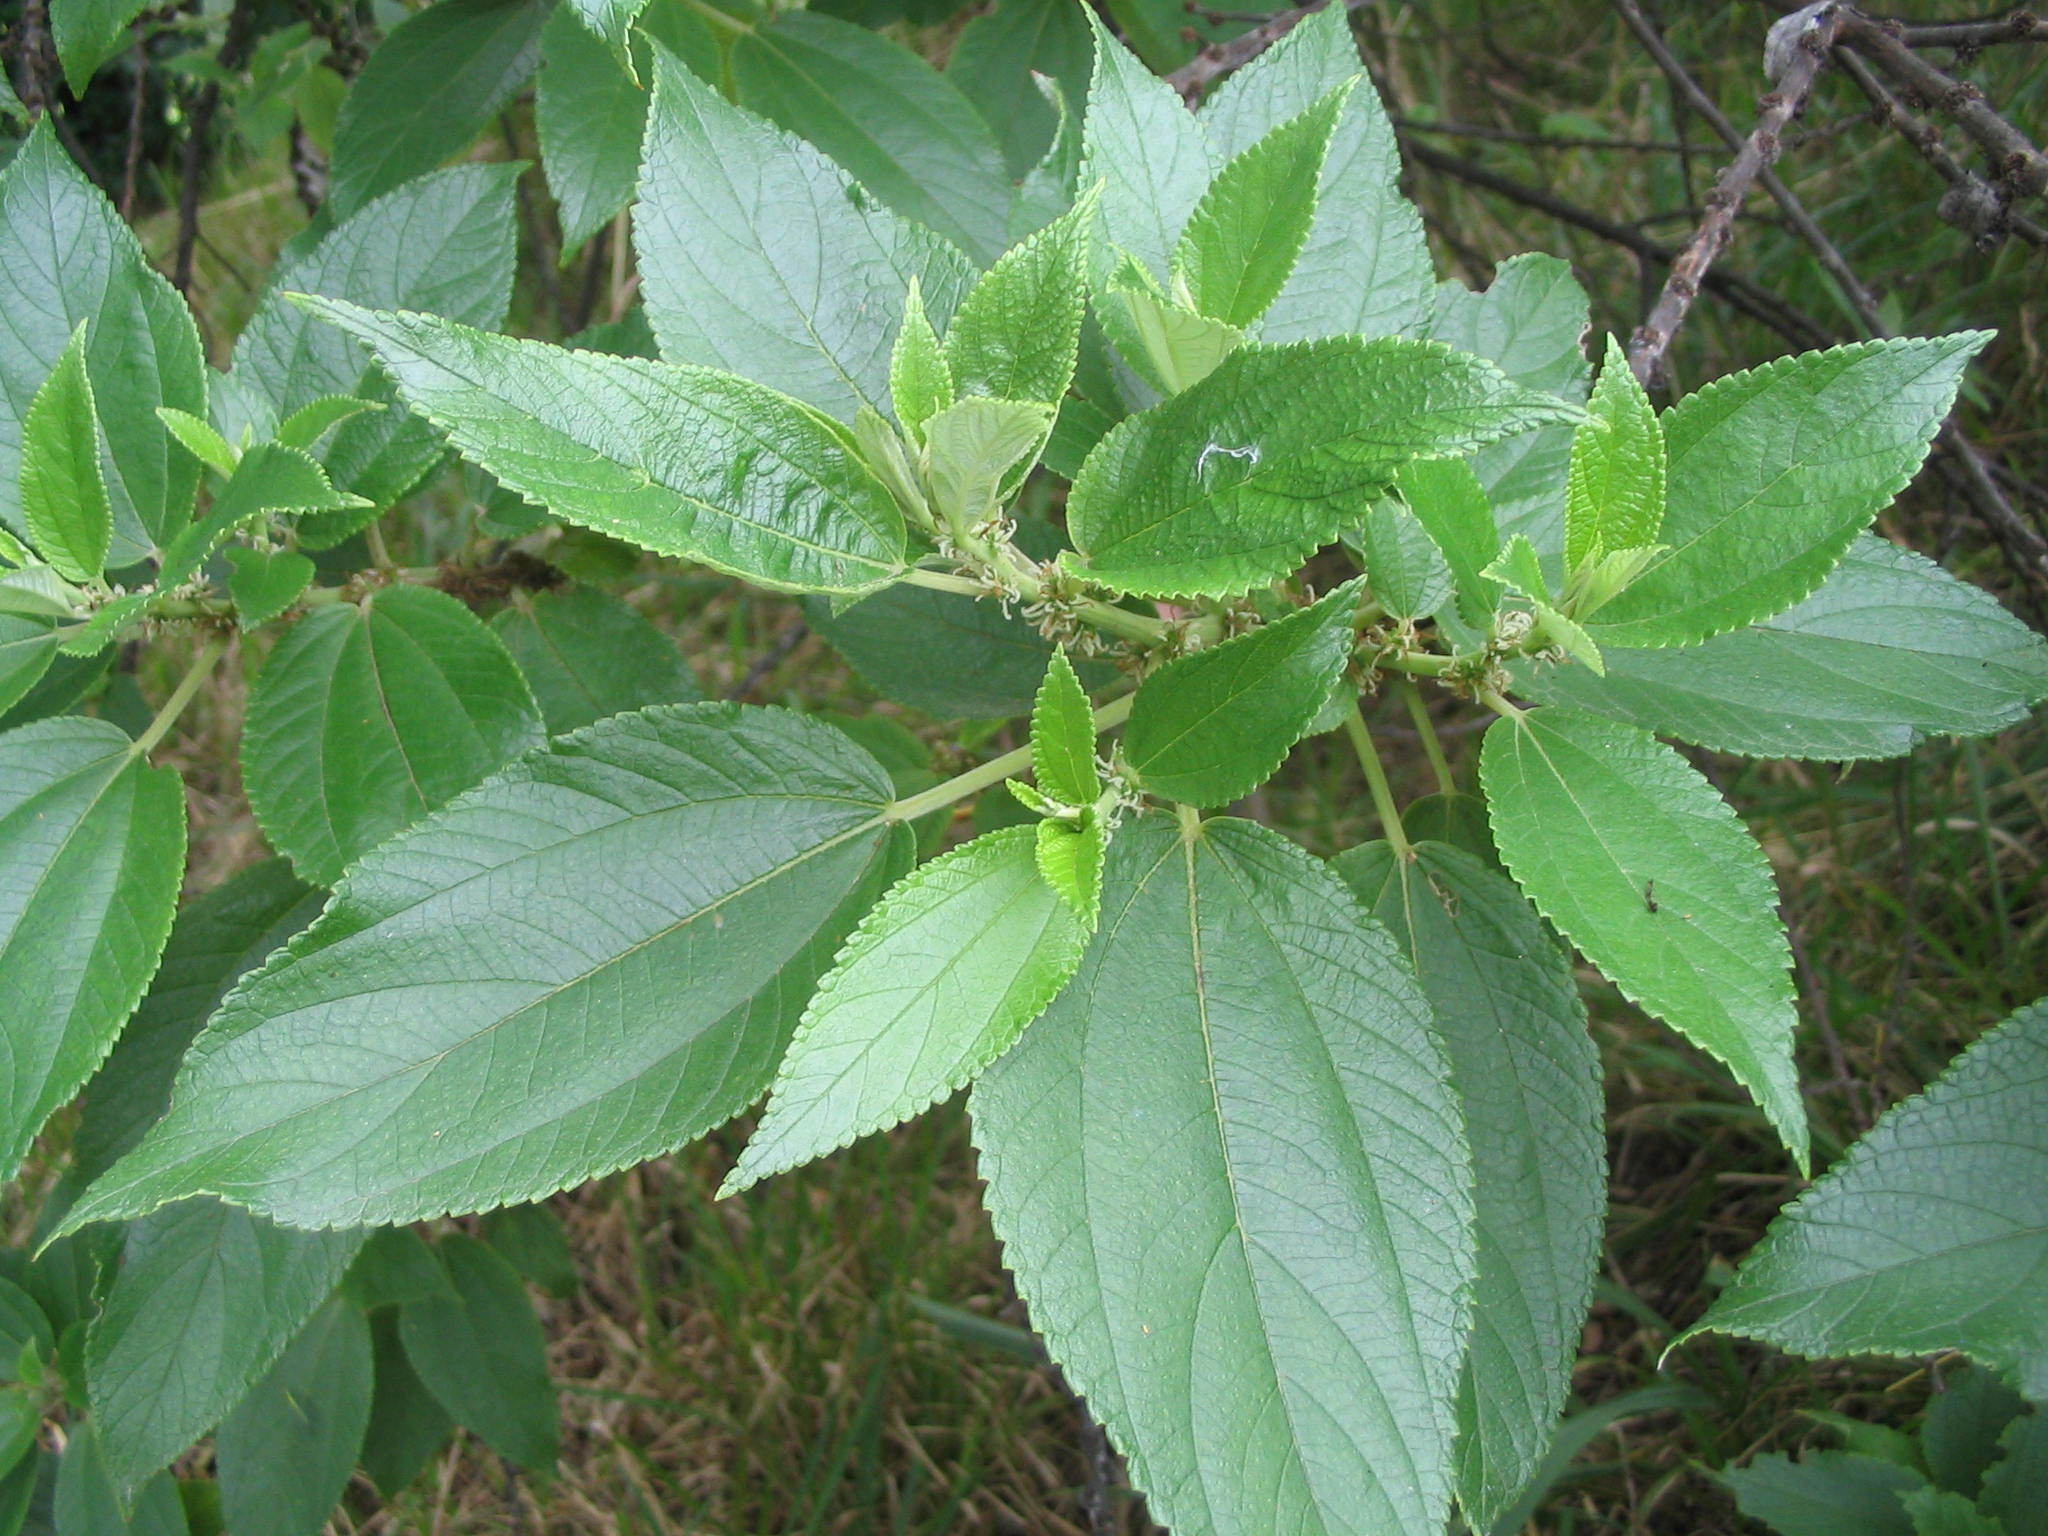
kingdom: Plantae
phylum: Tracheophyta
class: Magnoliopsida
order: Rosales
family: Urticaceae
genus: Pouzolzia
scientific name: Pouzolzia australis
